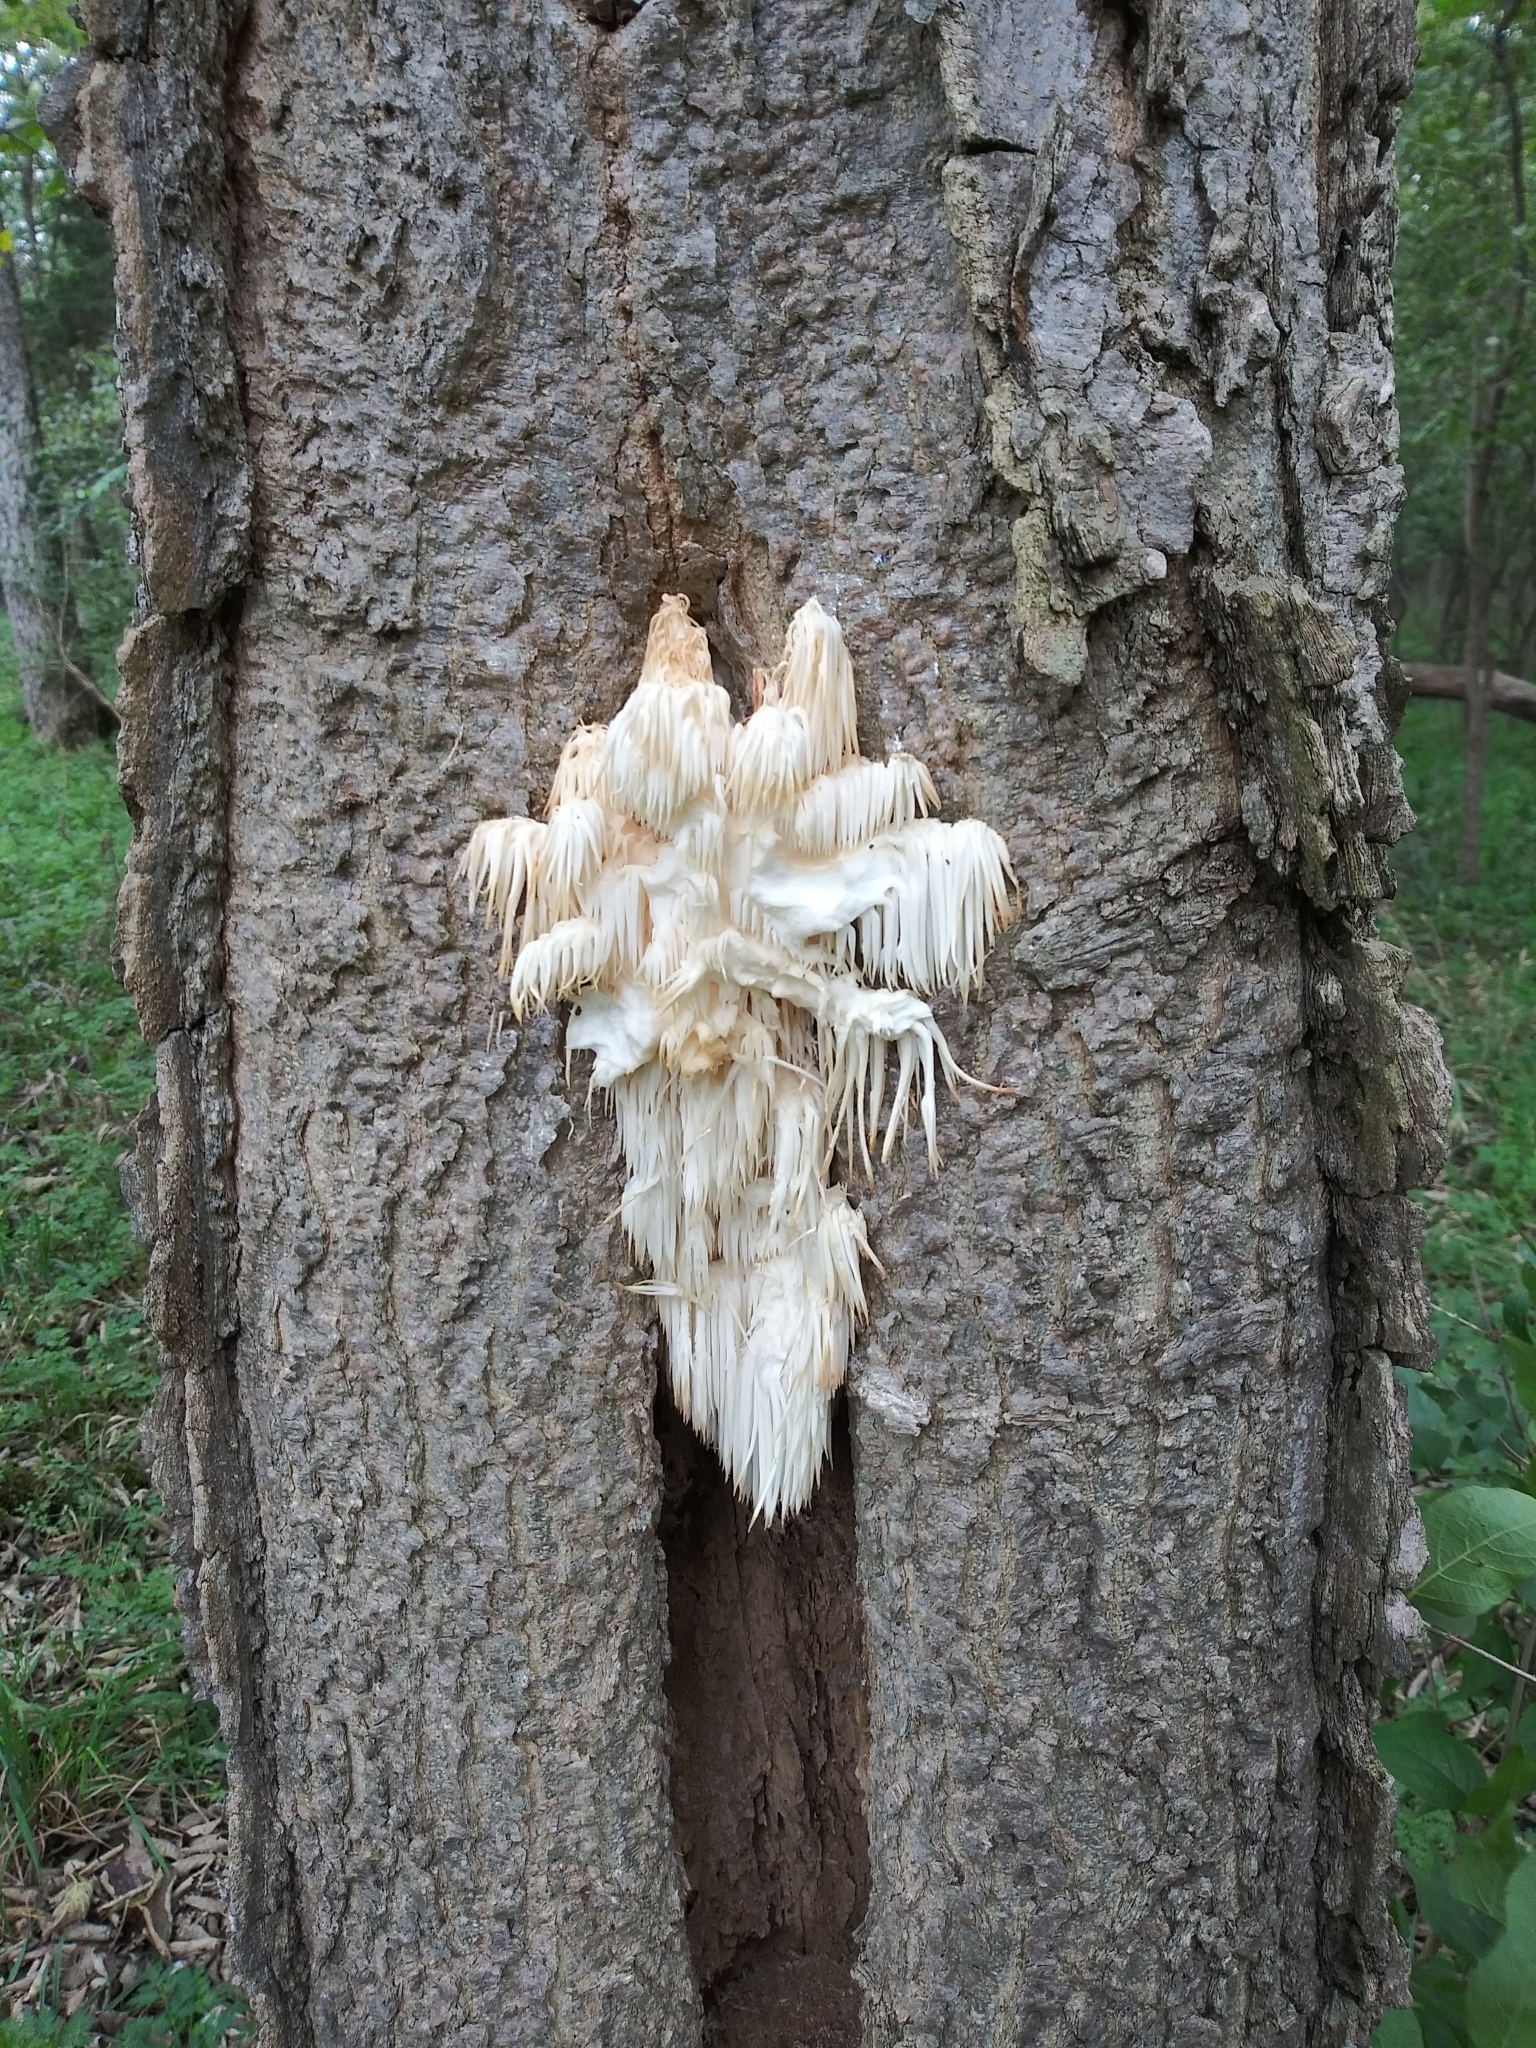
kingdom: Fungi
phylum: Basidiomycota
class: Agaricomycetes
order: Russulales
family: Hericiaceae
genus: Hericium
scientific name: Hericium americanum
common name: Bear's head tooth
